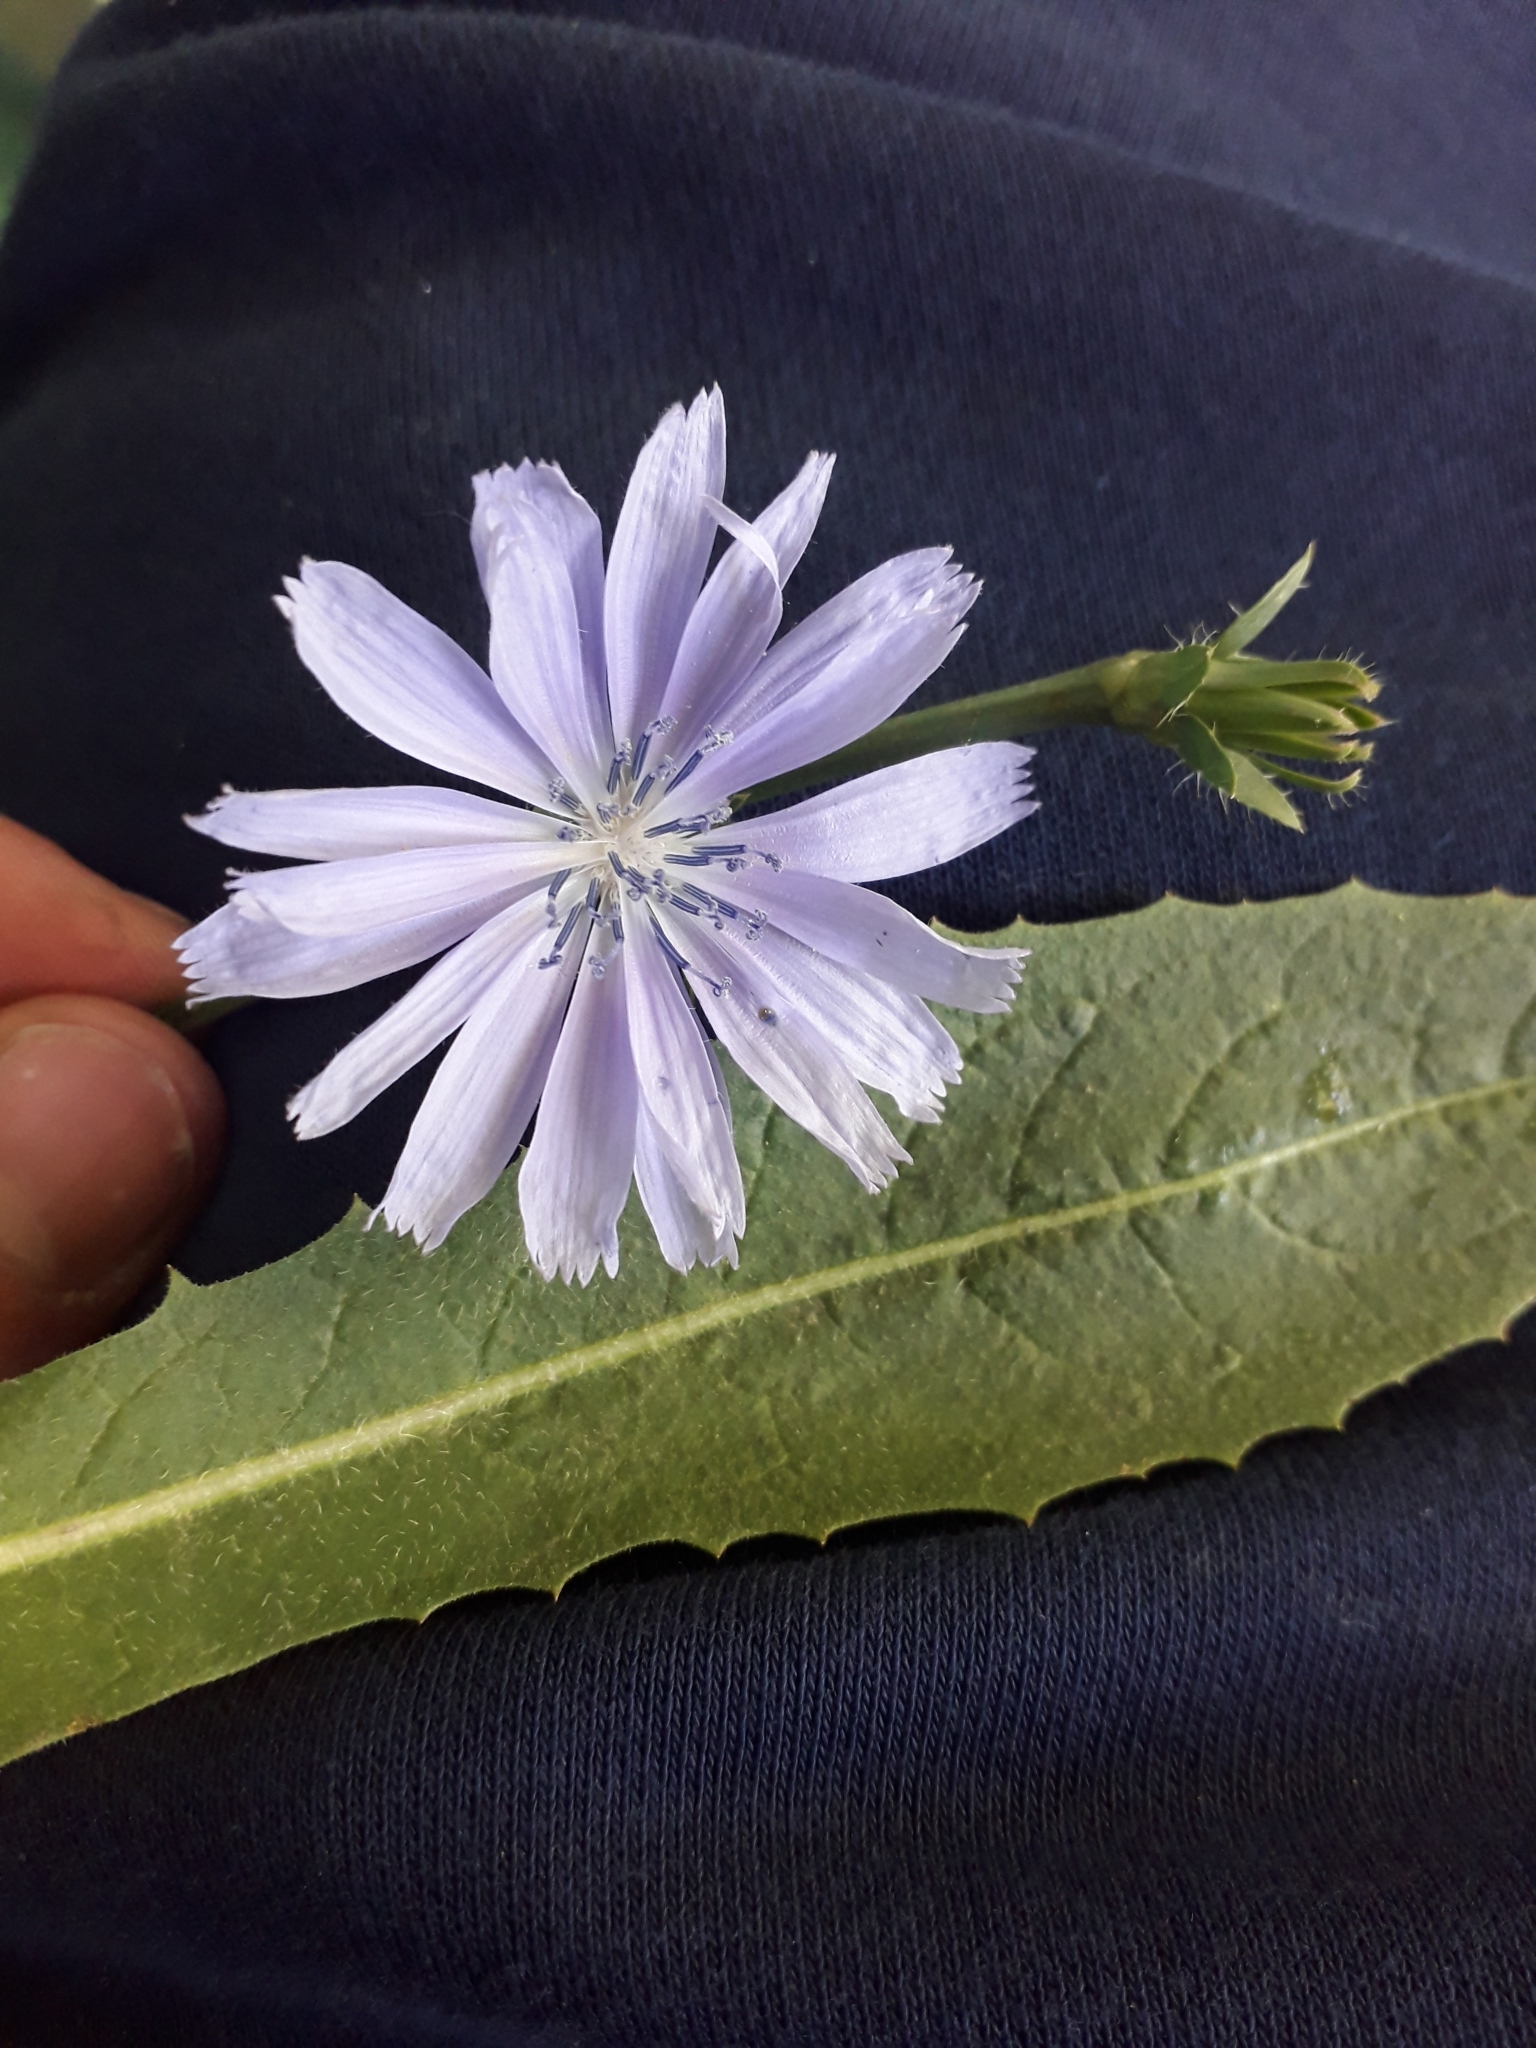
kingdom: Plantae
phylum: Tracheophyta
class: Magnoliopsida
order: Asterales
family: Asteraceae
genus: Cichorium
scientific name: Cichorium intybus
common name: Chicory
